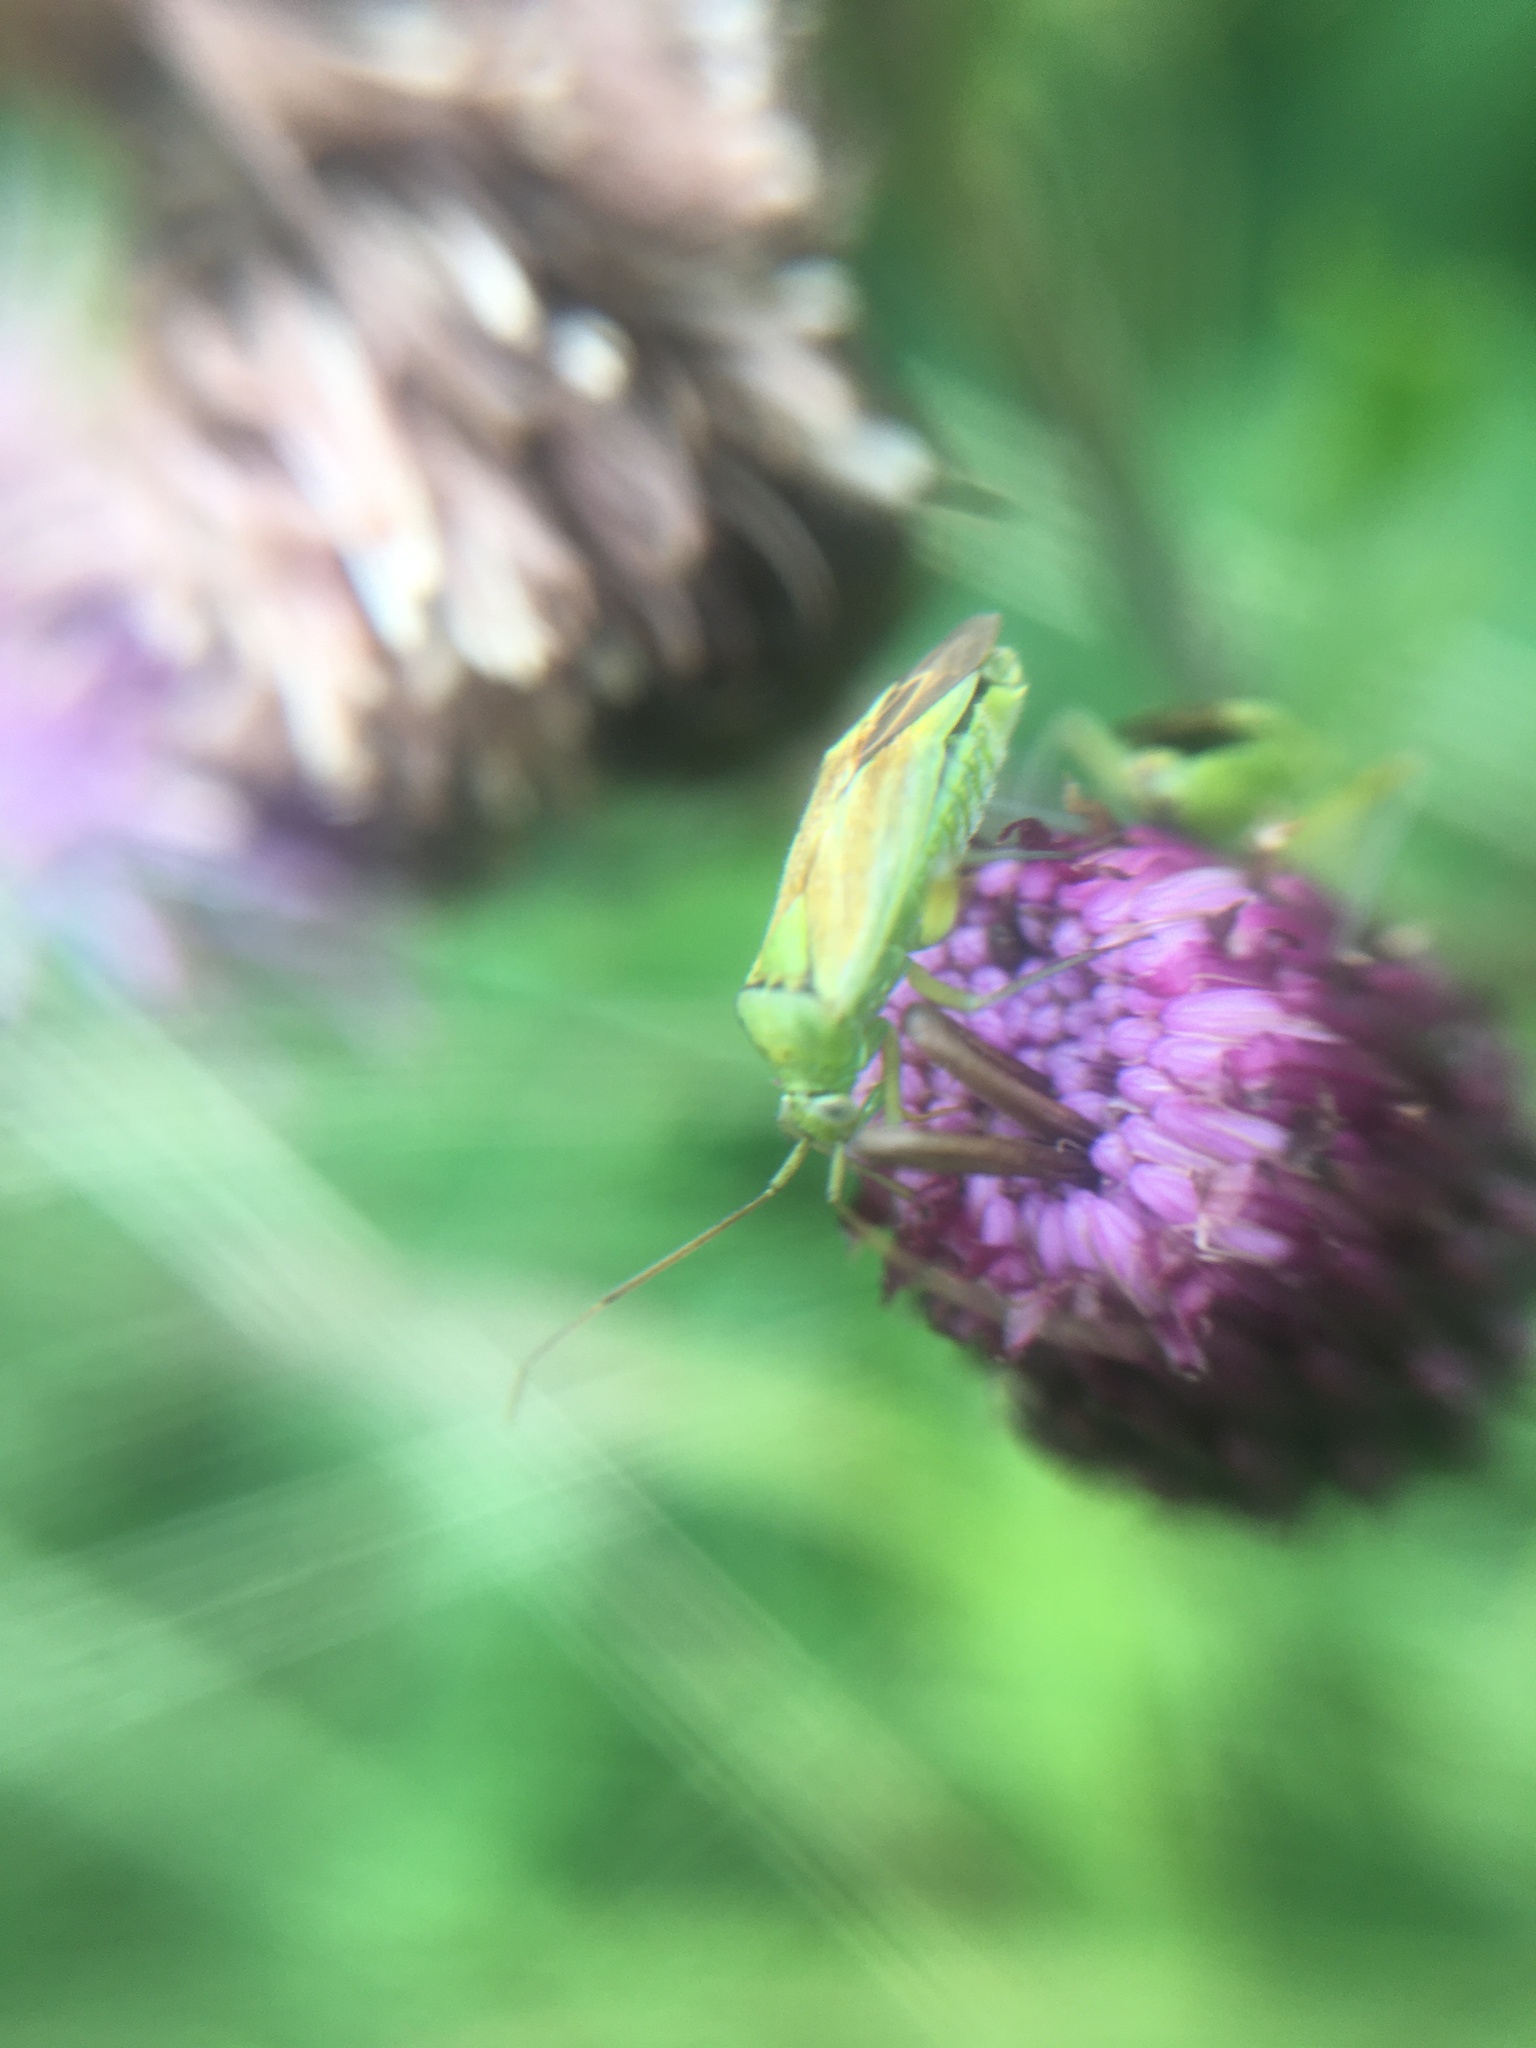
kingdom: Animalia
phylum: Arthropoda
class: Insecta
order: Hemiptera
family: Miridae
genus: Closterotomus
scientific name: Closterotomus norvegicus
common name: Plant bug
